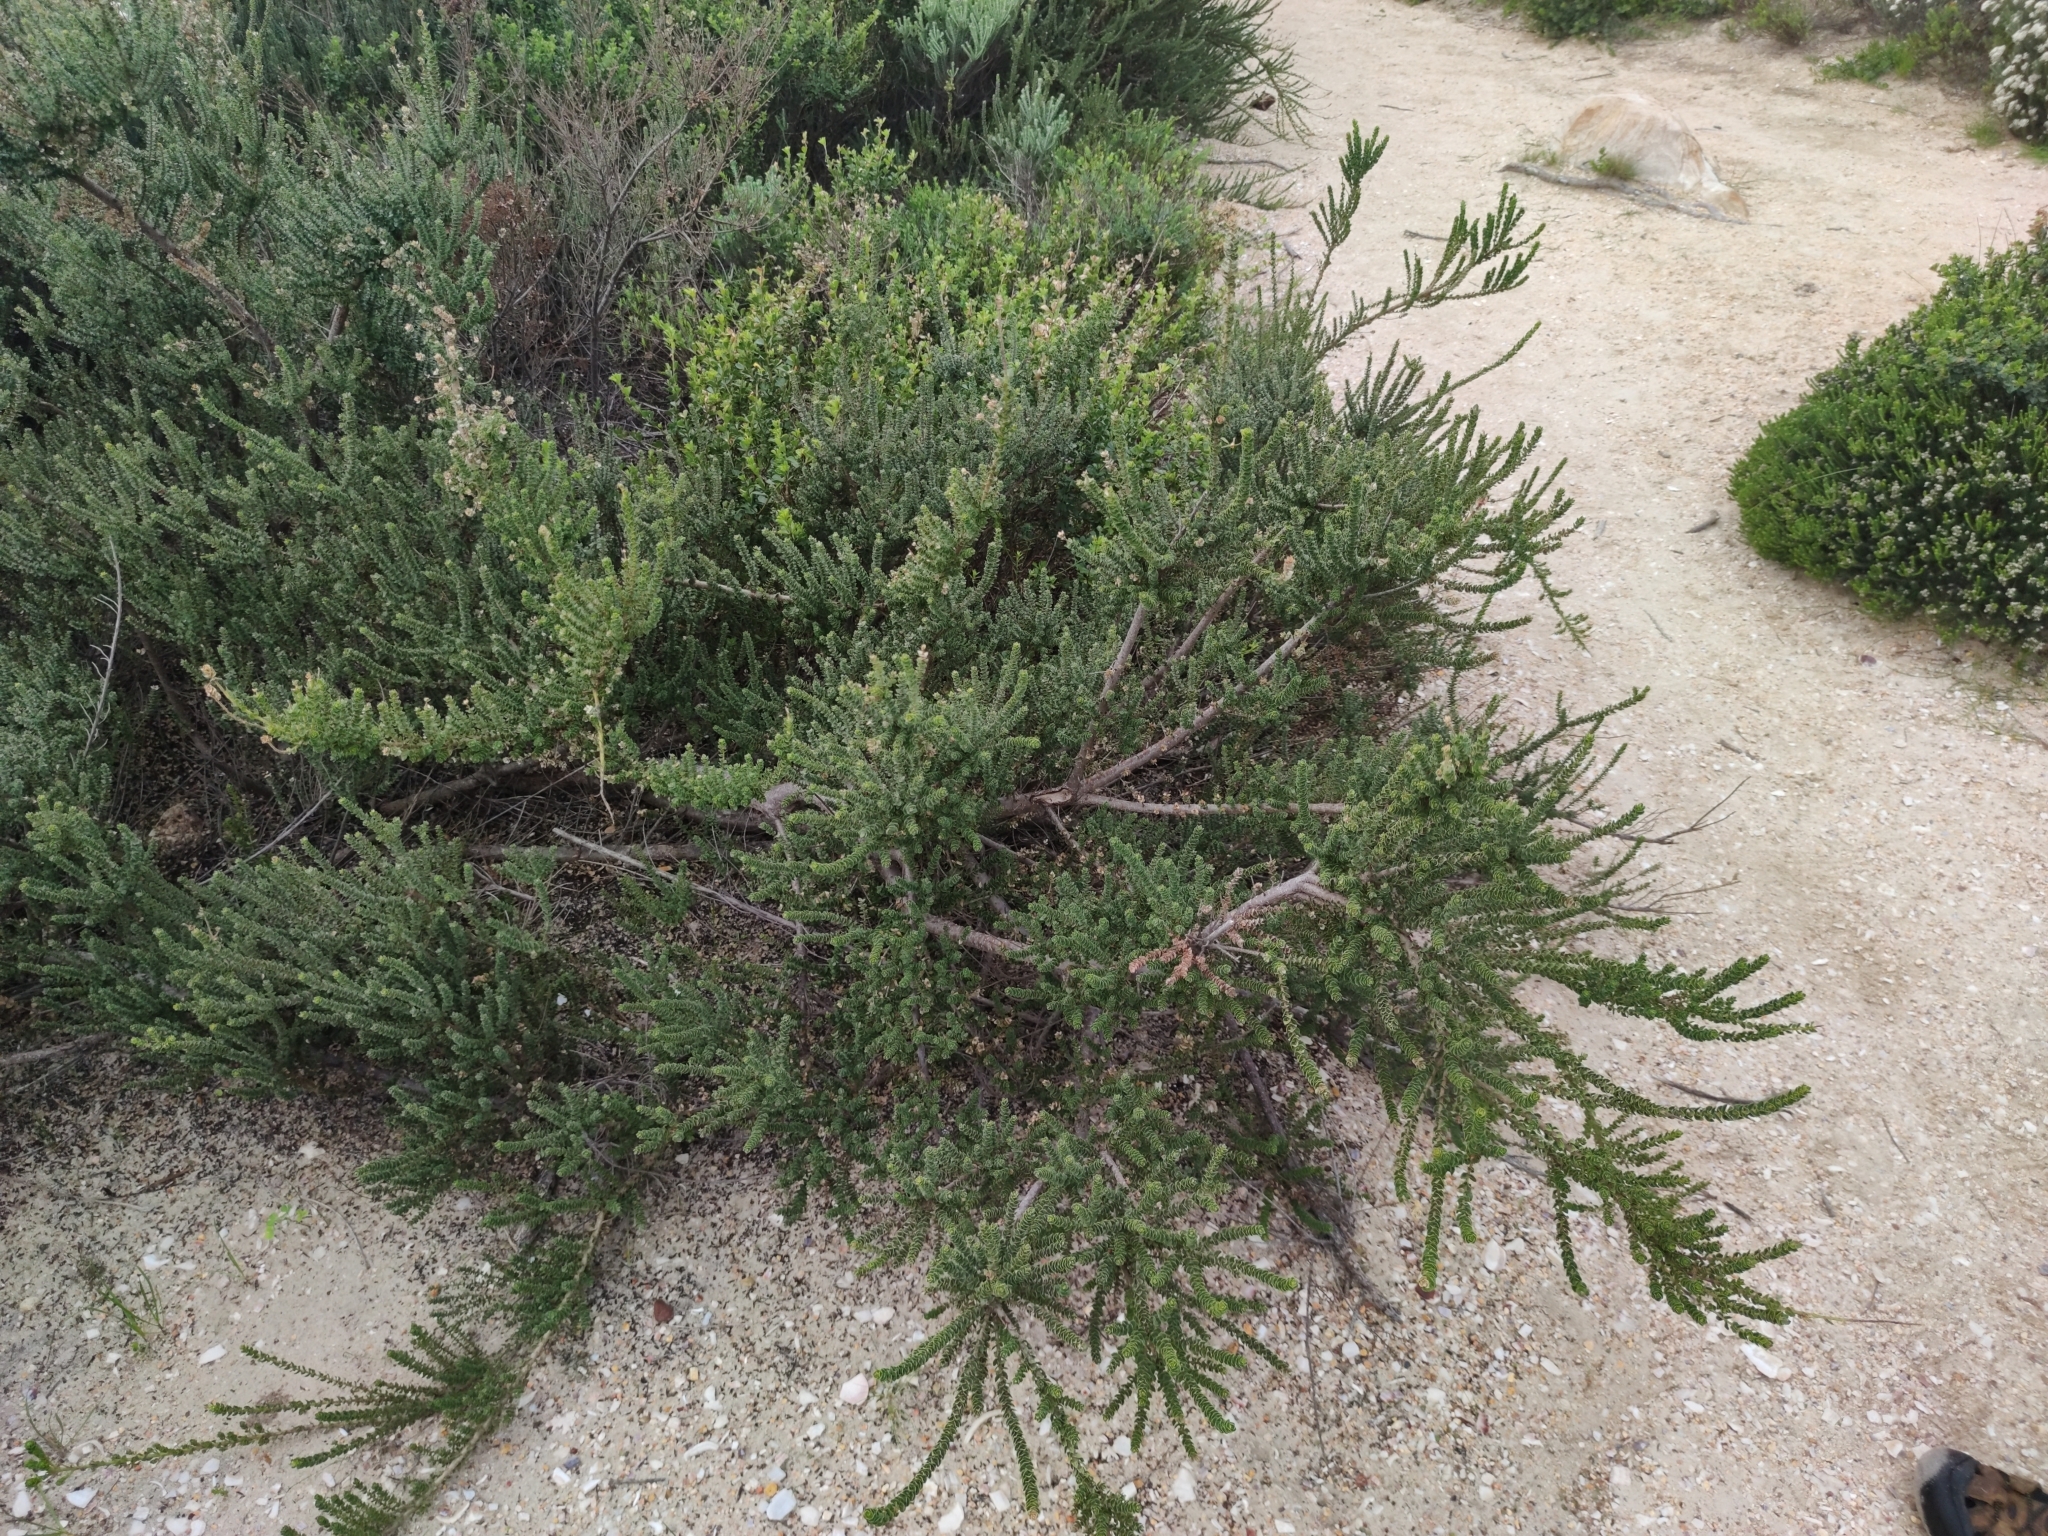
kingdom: Plantae
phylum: Tracheophyta
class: Magnoliopsida
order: Fagales
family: Myricaceae
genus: Morella
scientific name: Morella cordifolia
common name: Waxberry
